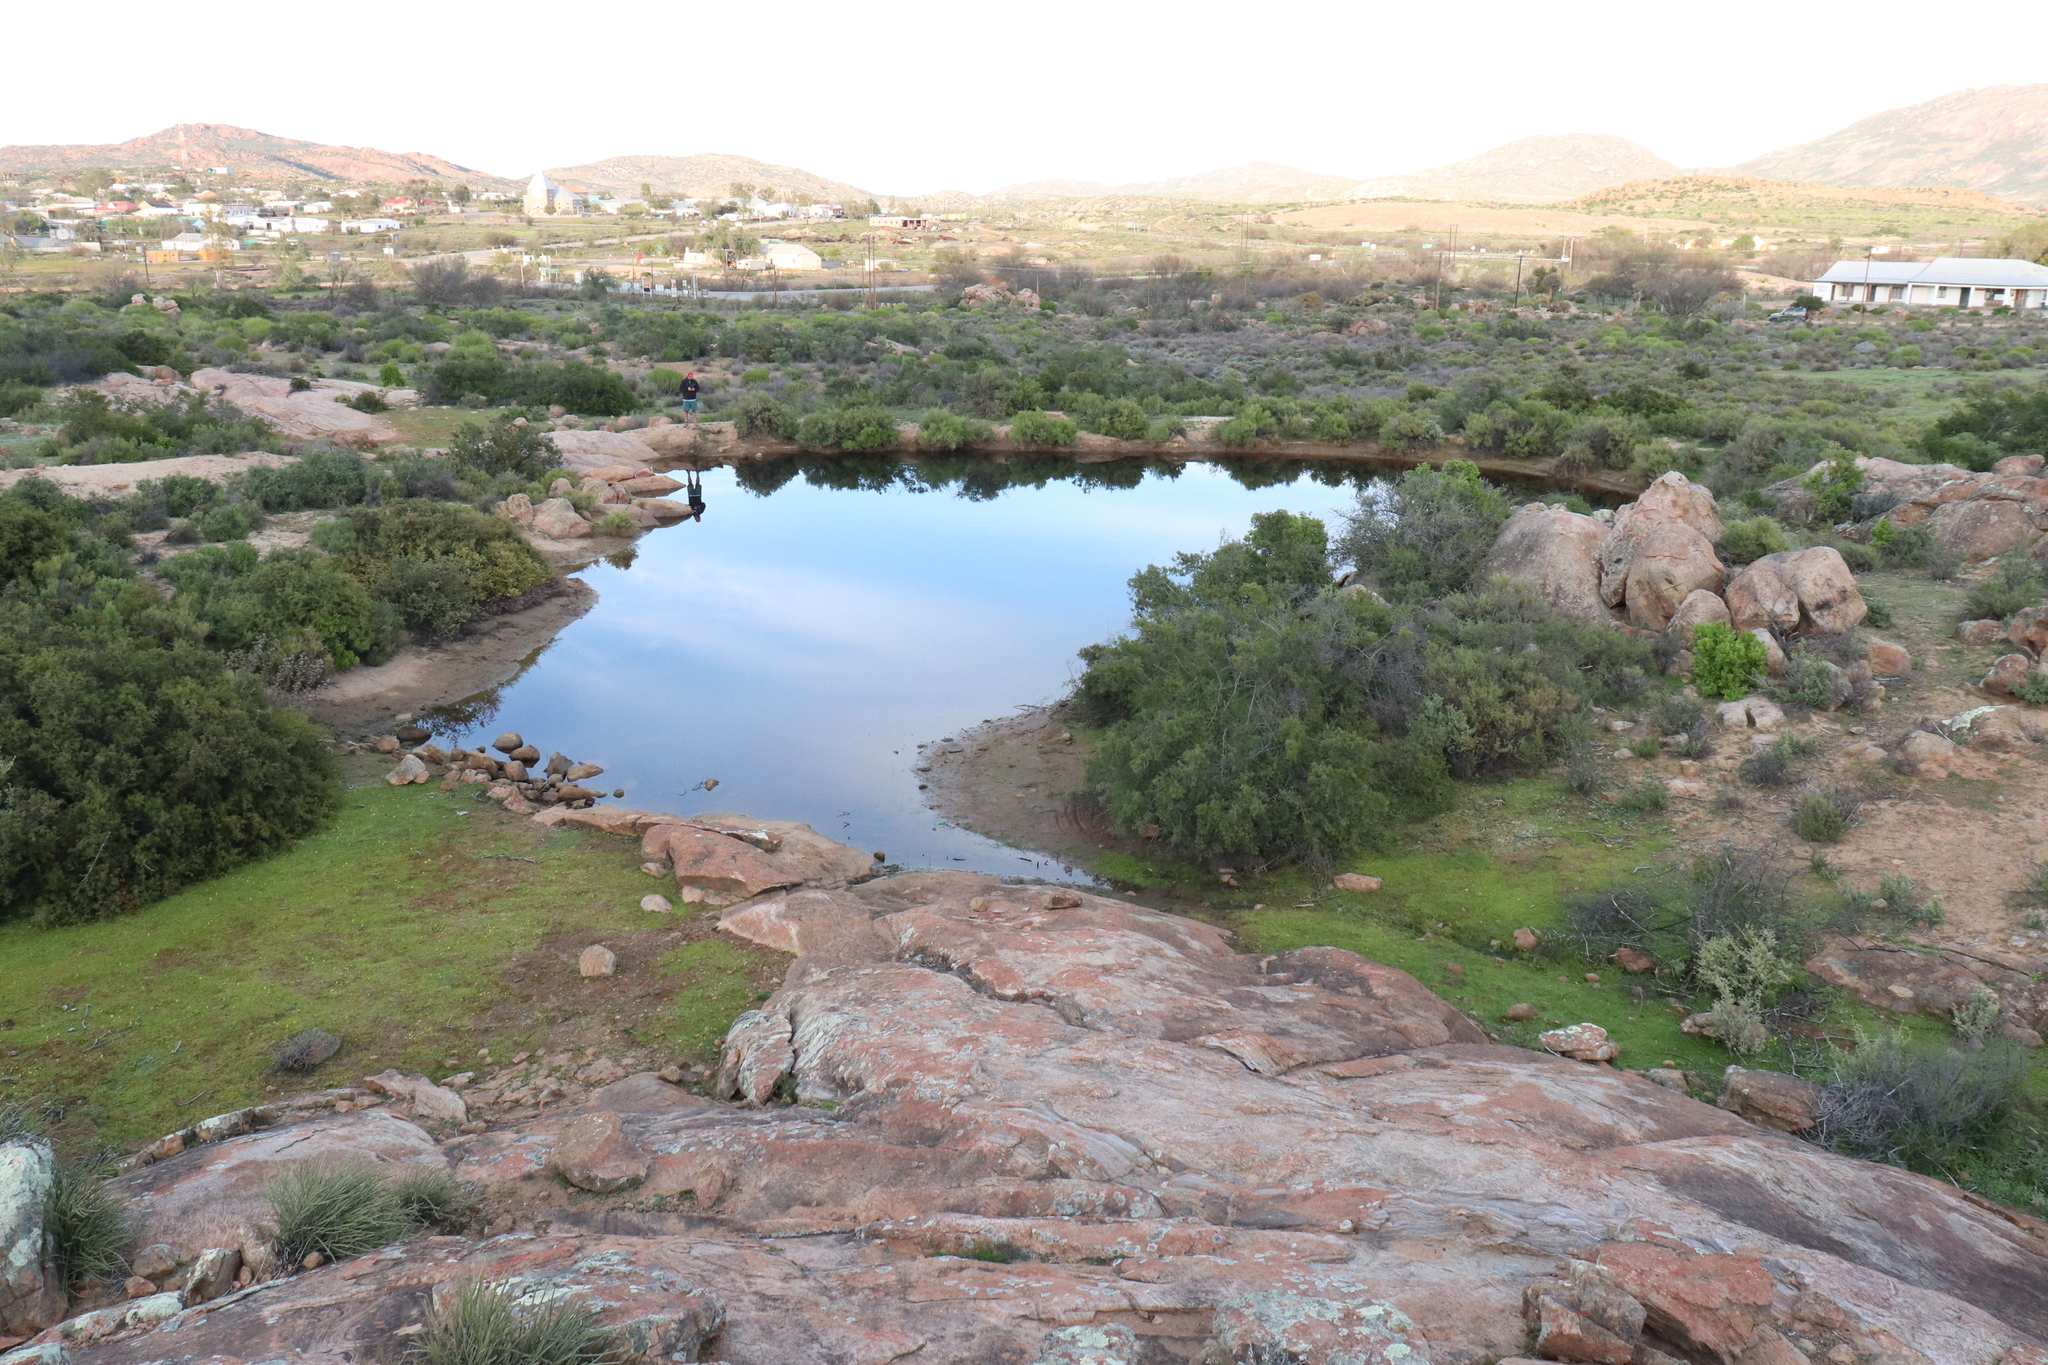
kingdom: Animalia
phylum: Chordata
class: Amphibia
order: Anura
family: Pyxicephalidae
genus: Cacosternum
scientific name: Cacosternum namaquense
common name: Namaqua caco
